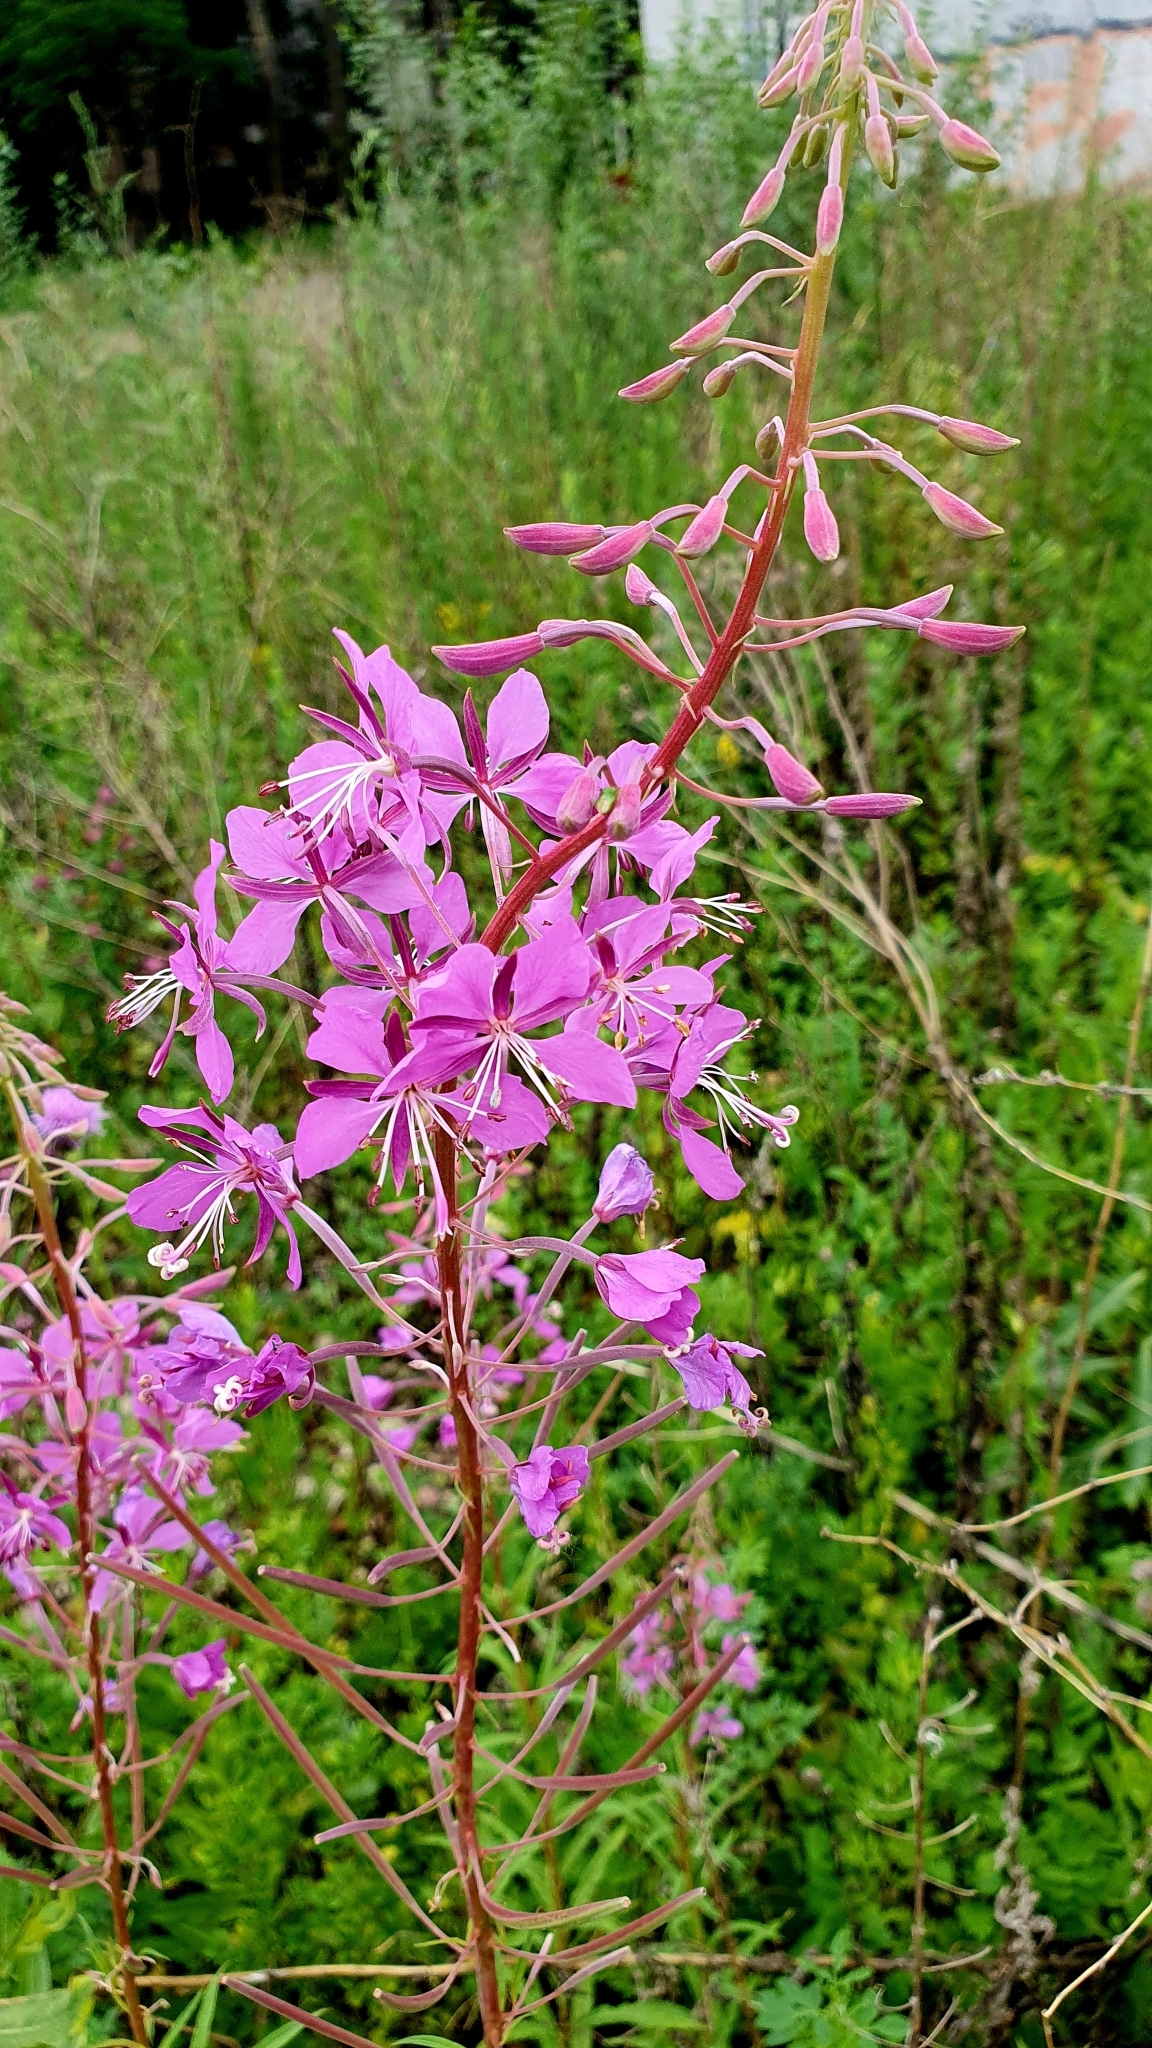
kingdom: Plantae
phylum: Tracheophyta
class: Magnoliopsida
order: Myrtales
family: Onagraceae
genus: Chamaenerion
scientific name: Chamaenerion angustifolium
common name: Fireweed
